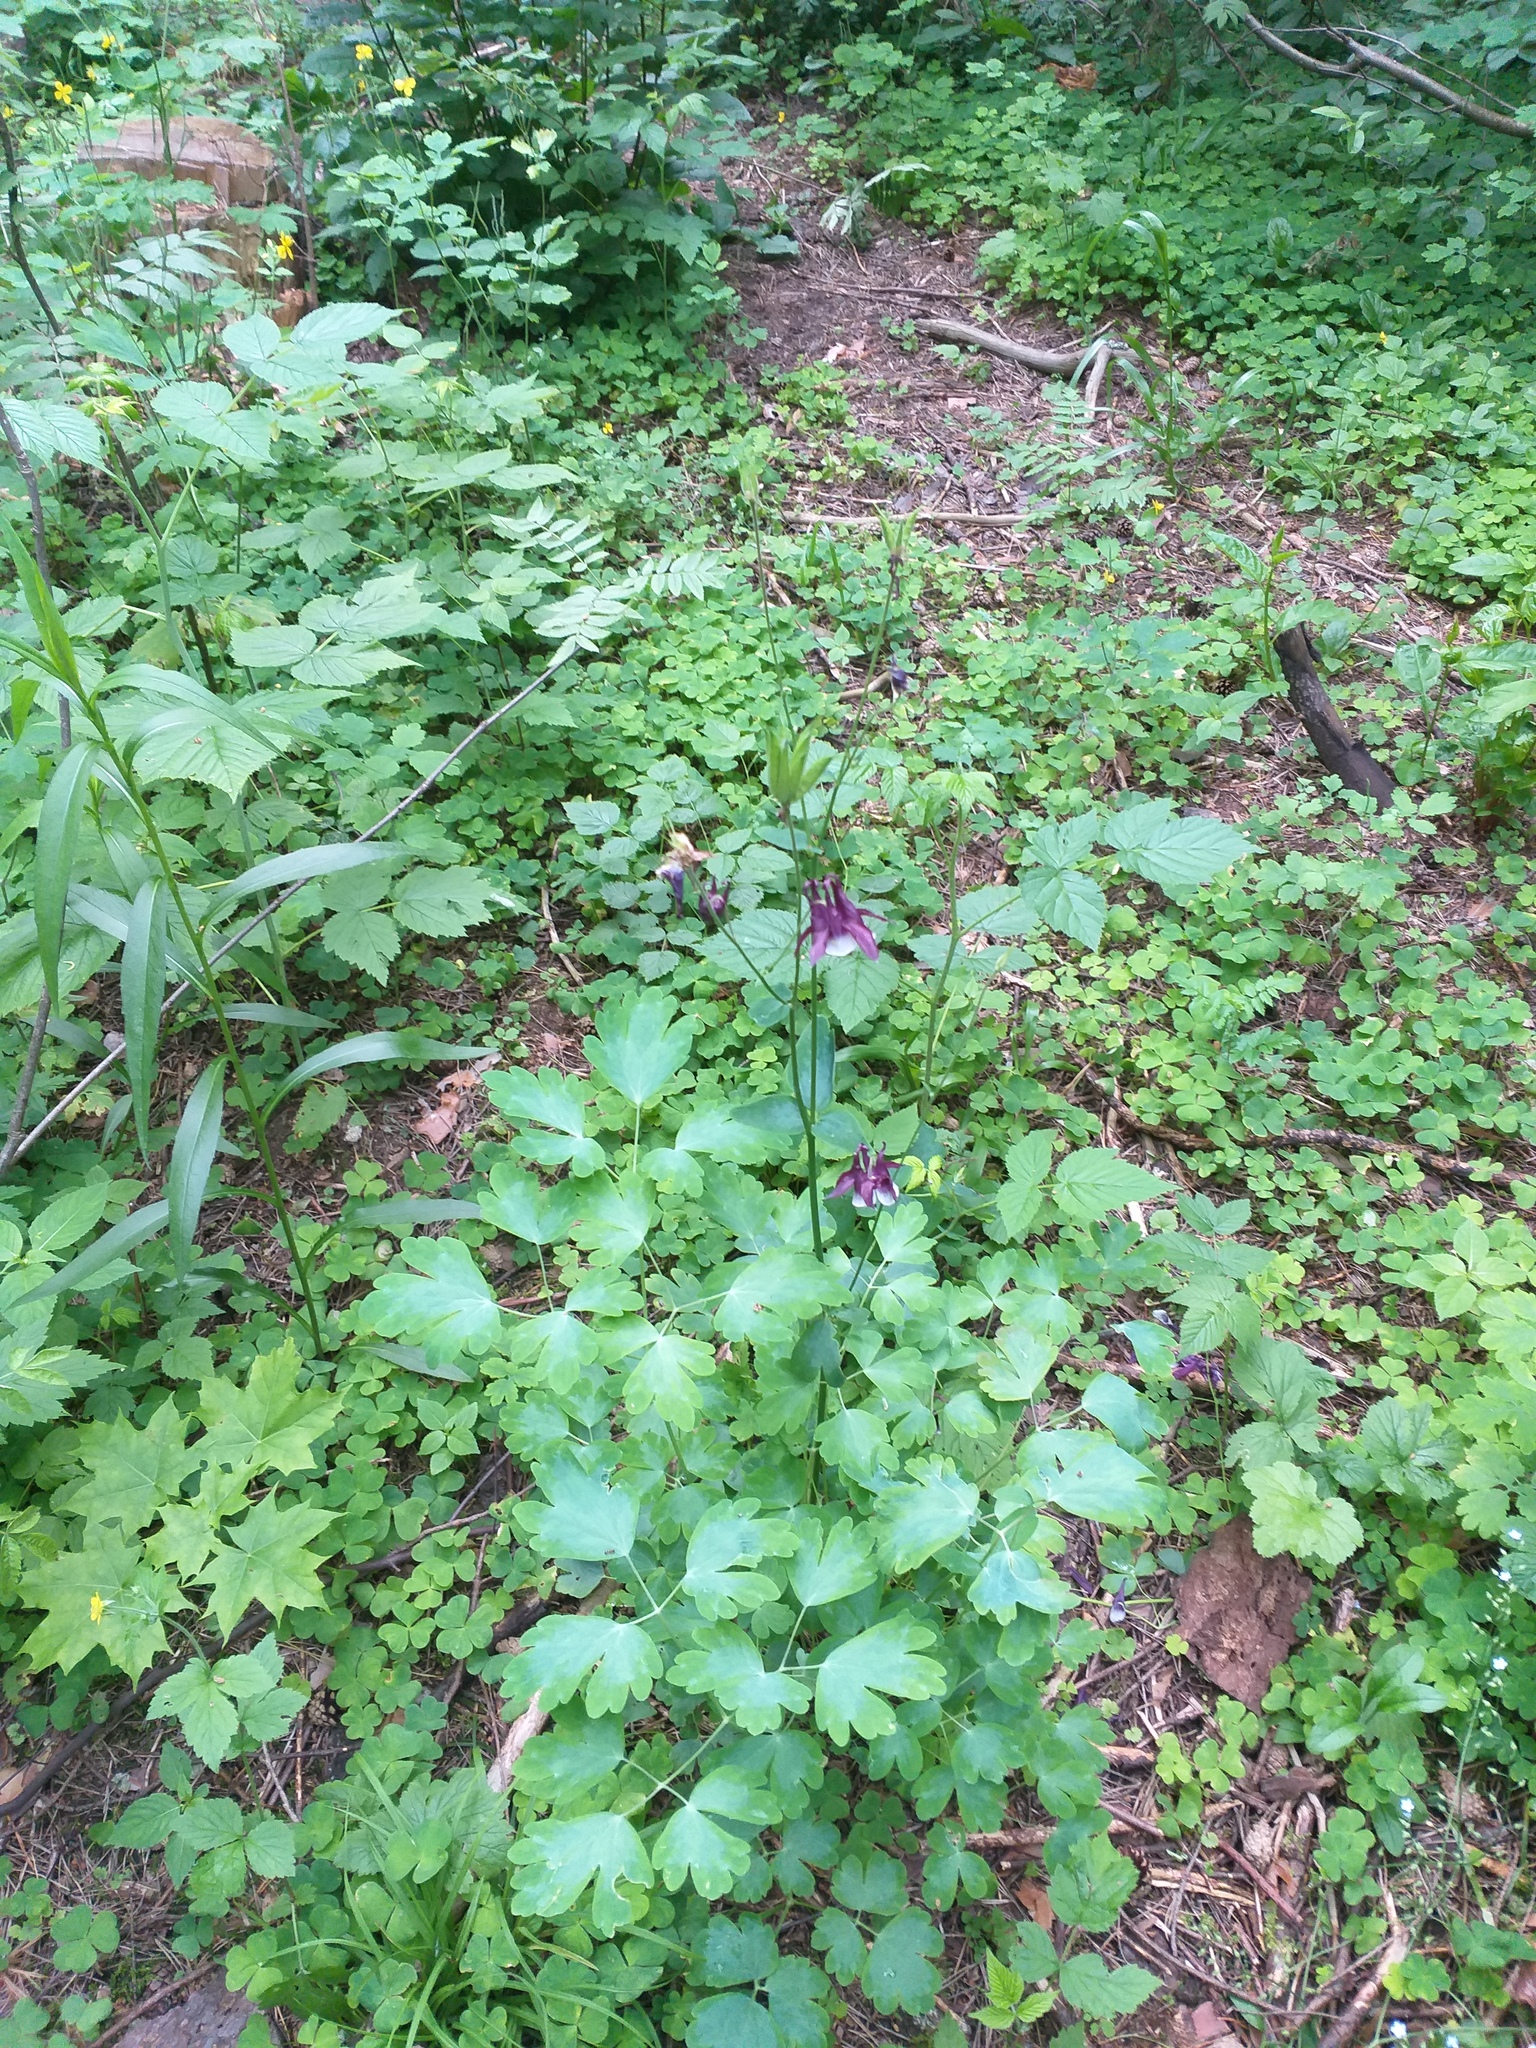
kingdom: Plantae
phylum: Tracheophyta
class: Magnoliopsida
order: Ranunculales
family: Ranunculaceae
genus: Aquilegia
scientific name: Aquilegia vulgaris
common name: Columbine
